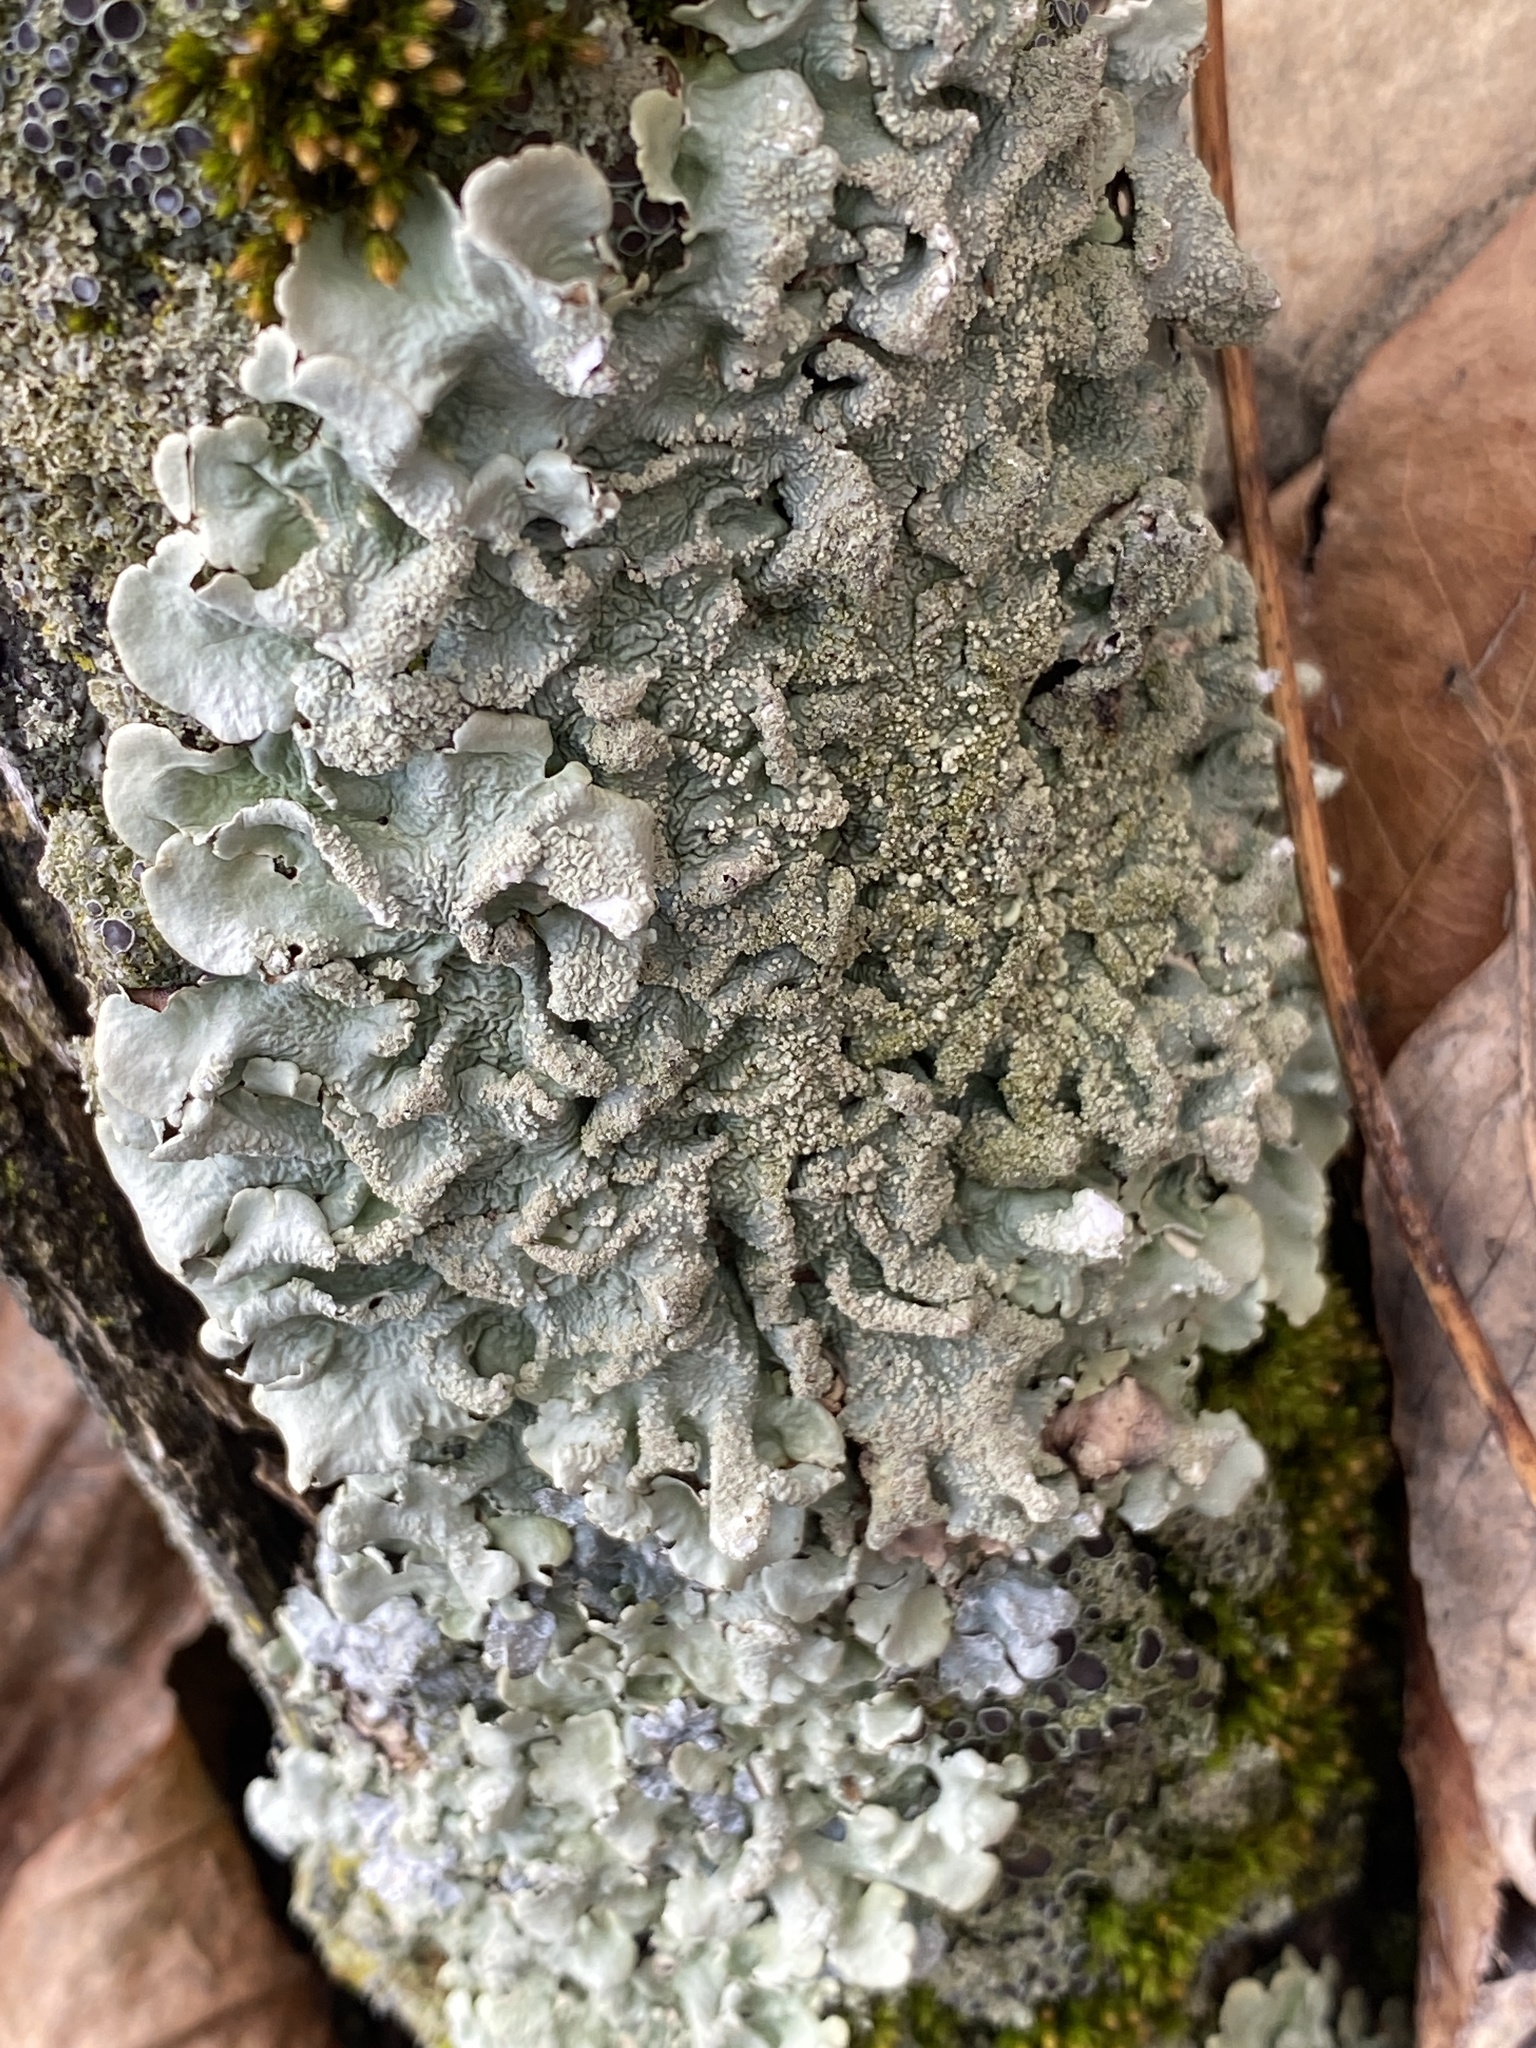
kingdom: Fungi
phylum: Ascomycota
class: Lecanoromycetes
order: Lecanorales
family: Parmeliaceae
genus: Flavoparmelia
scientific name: Flavoparmelia caperata
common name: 40-mile per hour lichen
